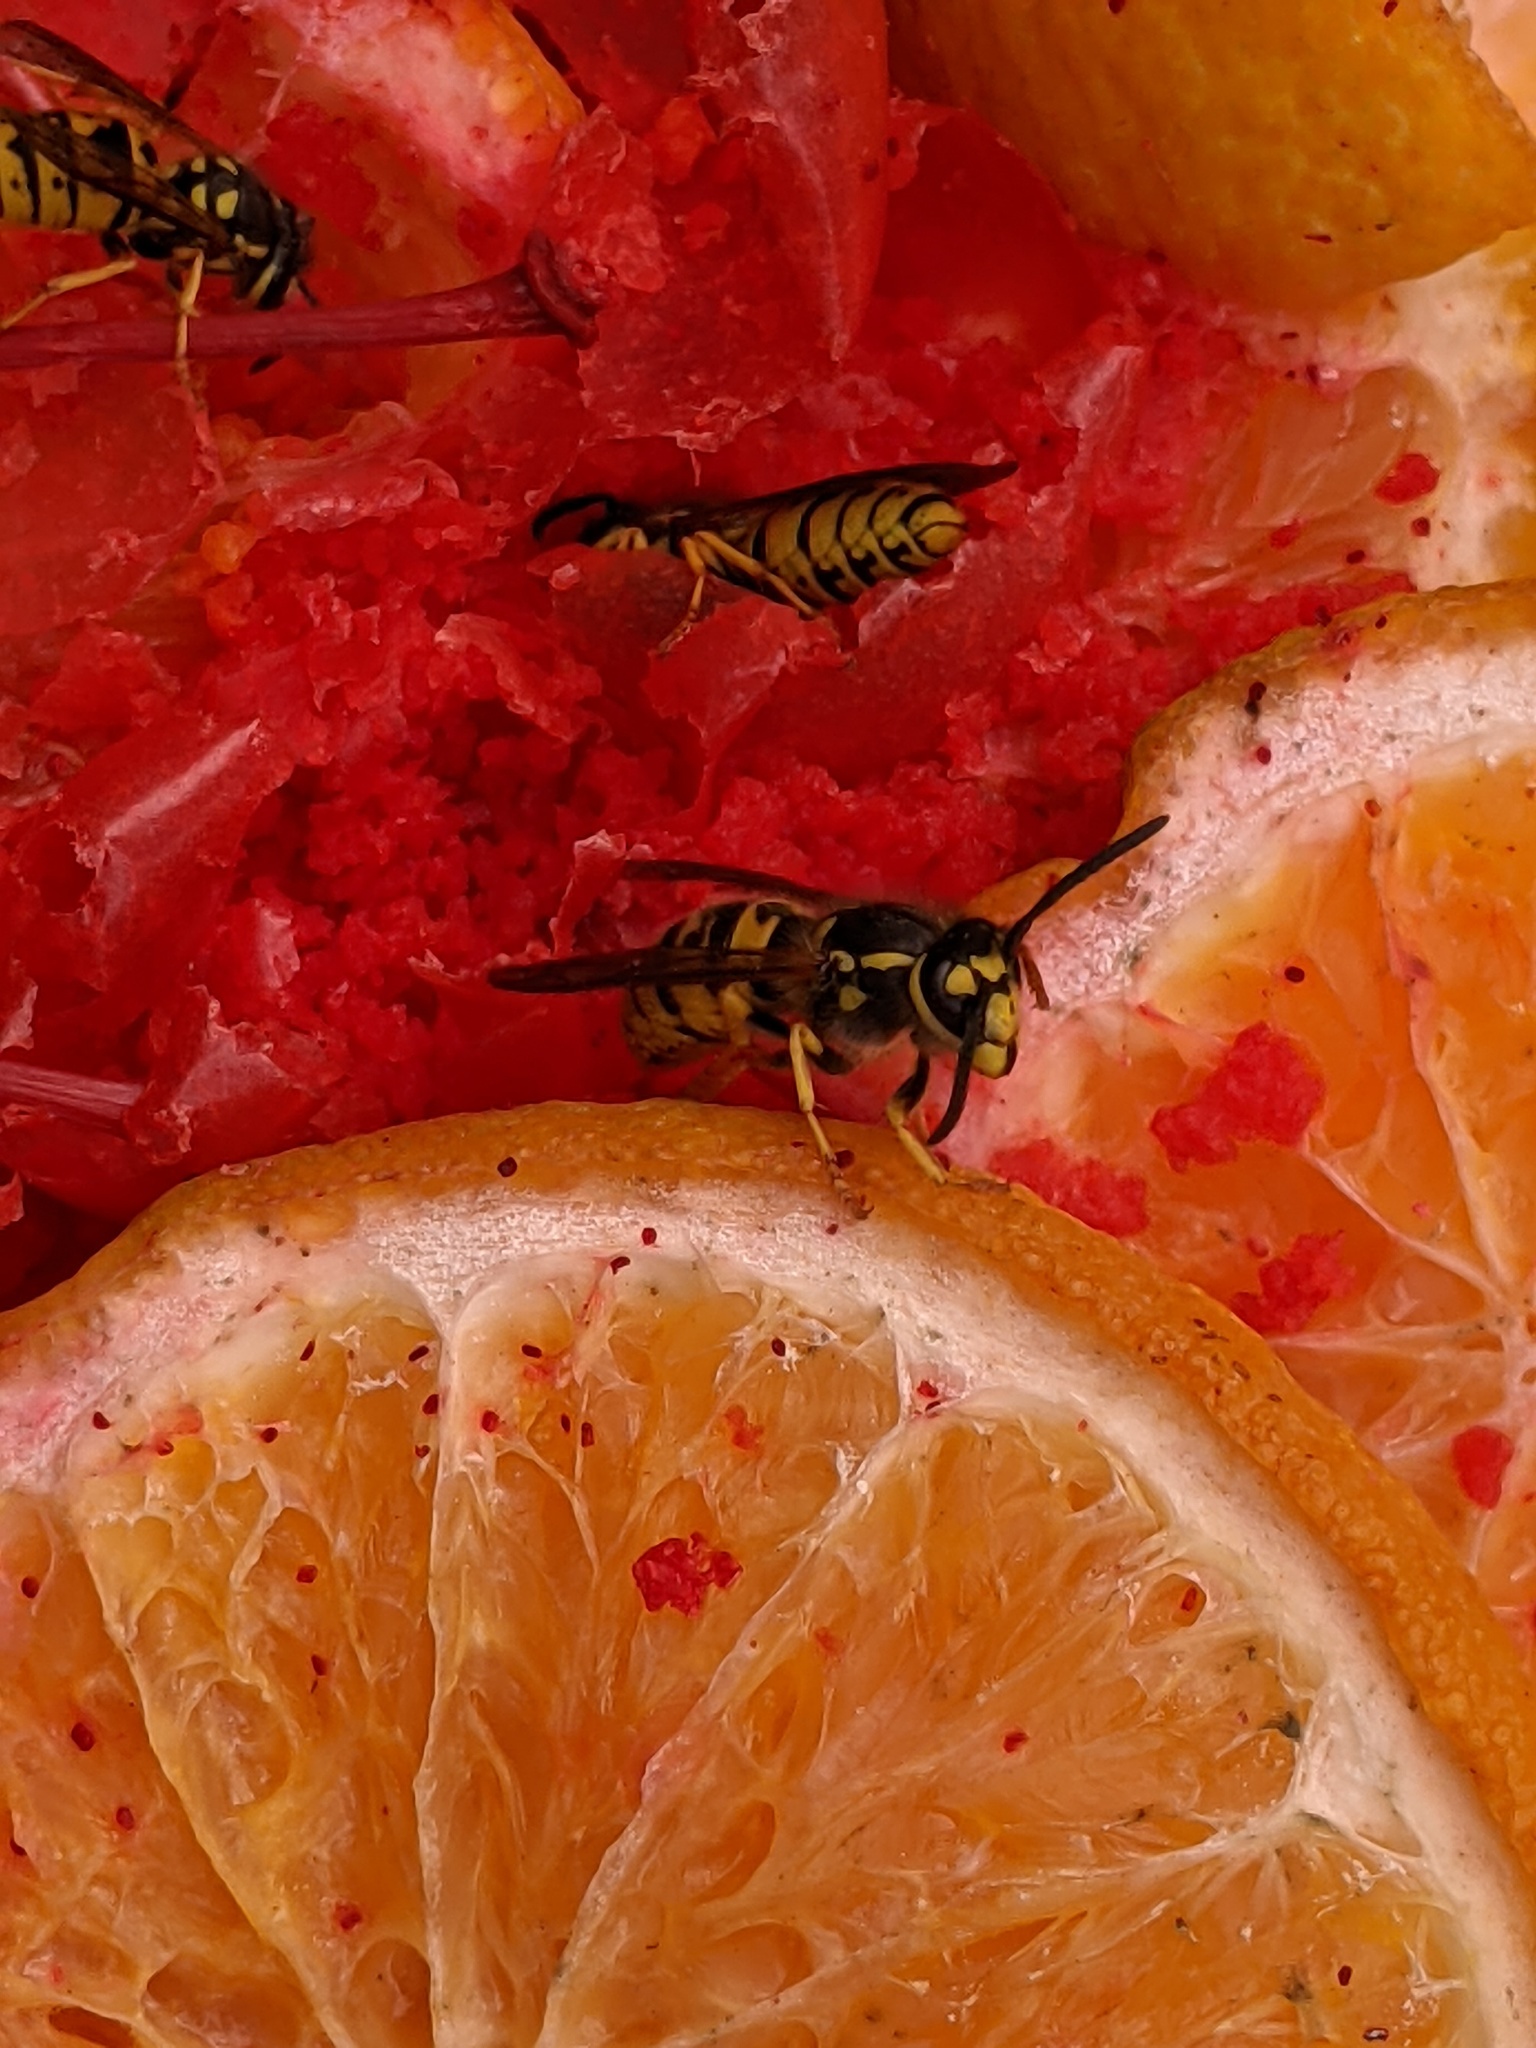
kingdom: Animalia
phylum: Arthropoda
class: Insecta
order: Hymenoptera
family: Vespidae
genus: Vespula
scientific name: Vespula germanica
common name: German wasp
